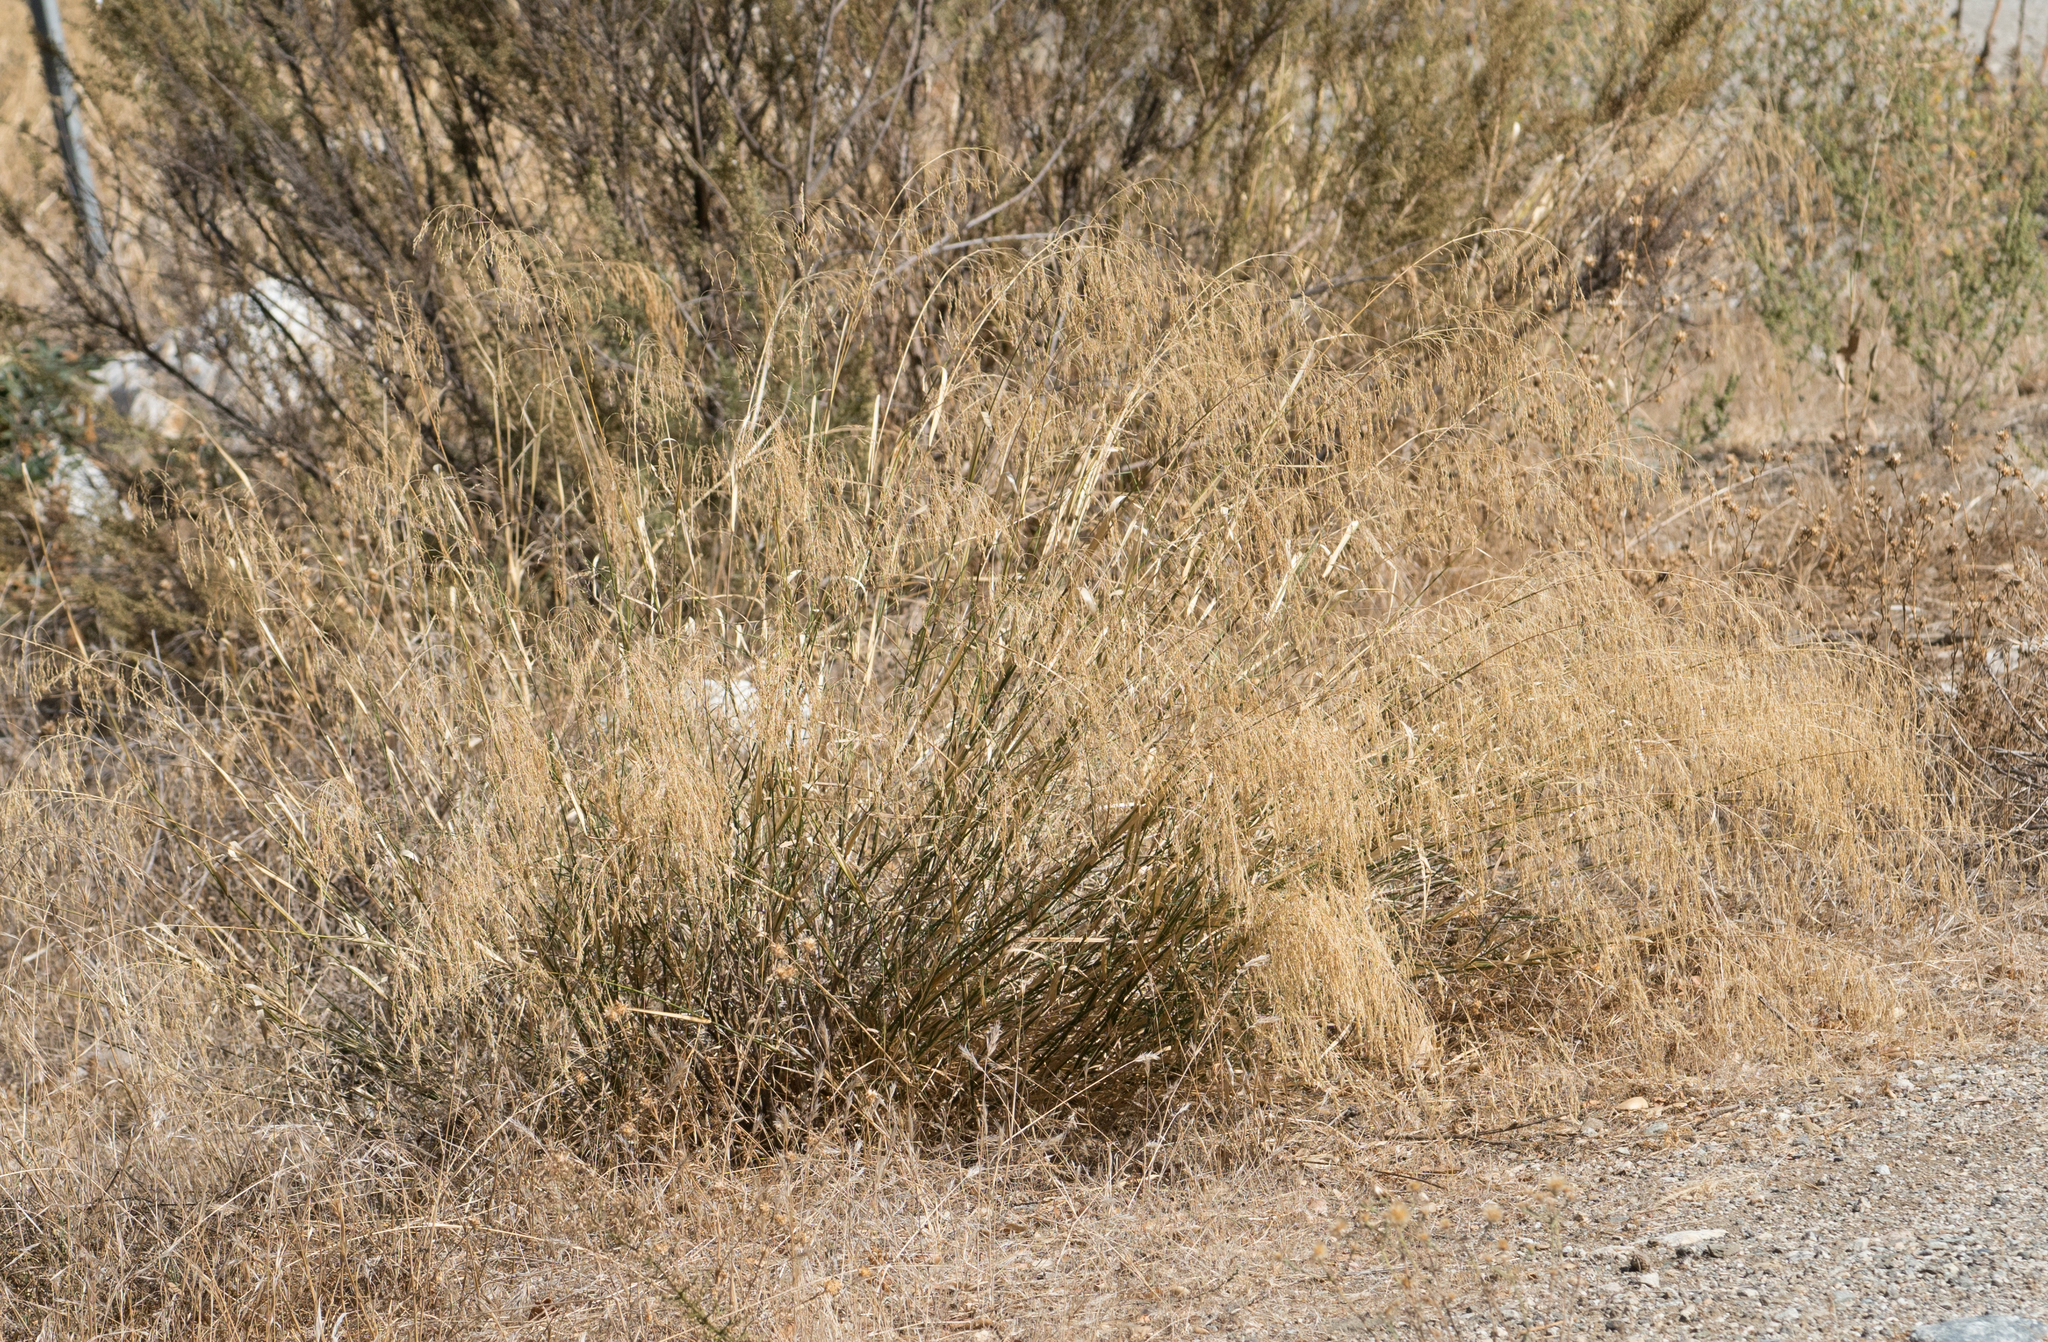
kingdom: Plantae
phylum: Tracheophyta
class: Liliopsida
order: Poales
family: Poaceae
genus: Oloptum
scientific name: Oloptum miliaceum
